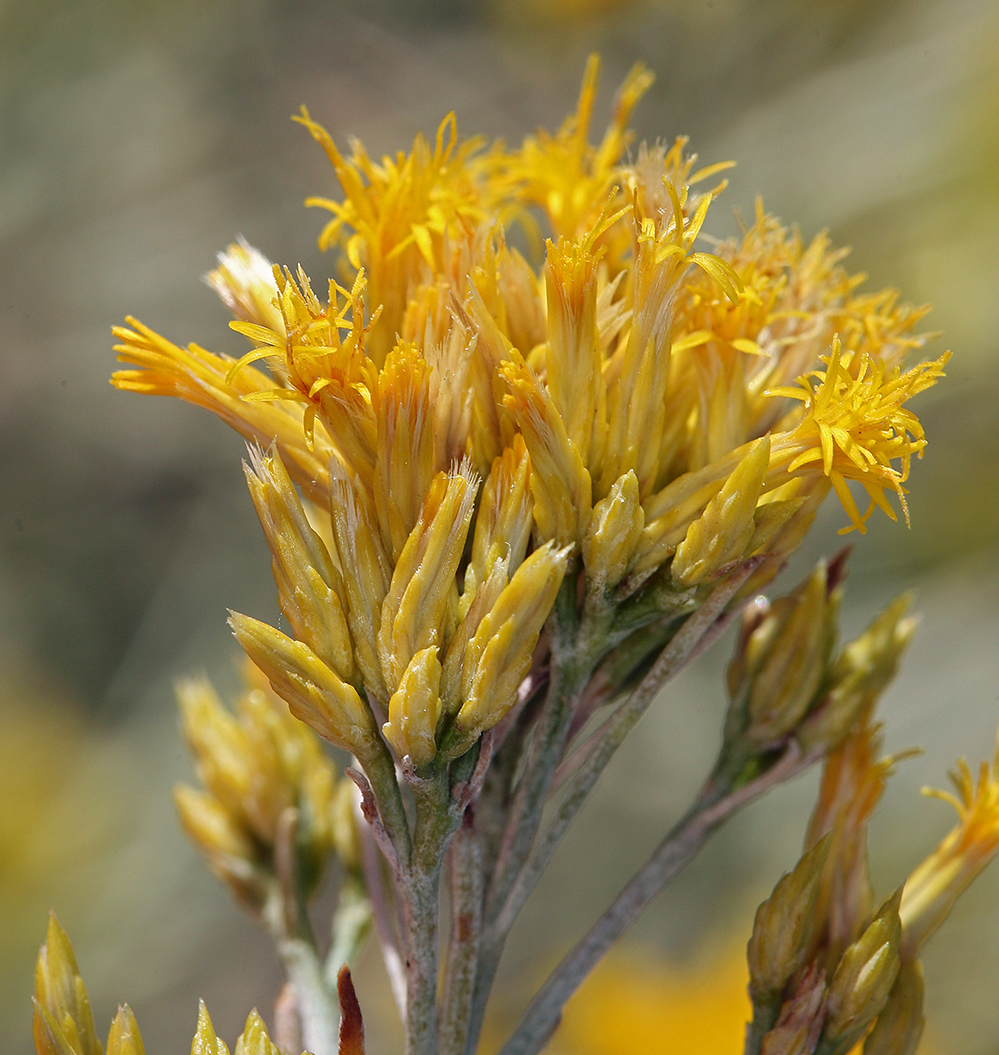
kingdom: Plantae
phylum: Tracheophyta
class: Magnoliopsida
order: Asterales
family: Asteraceae
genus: Ericameria
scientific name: Ericameria nauseosa
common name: Rubber rabbitbrush
